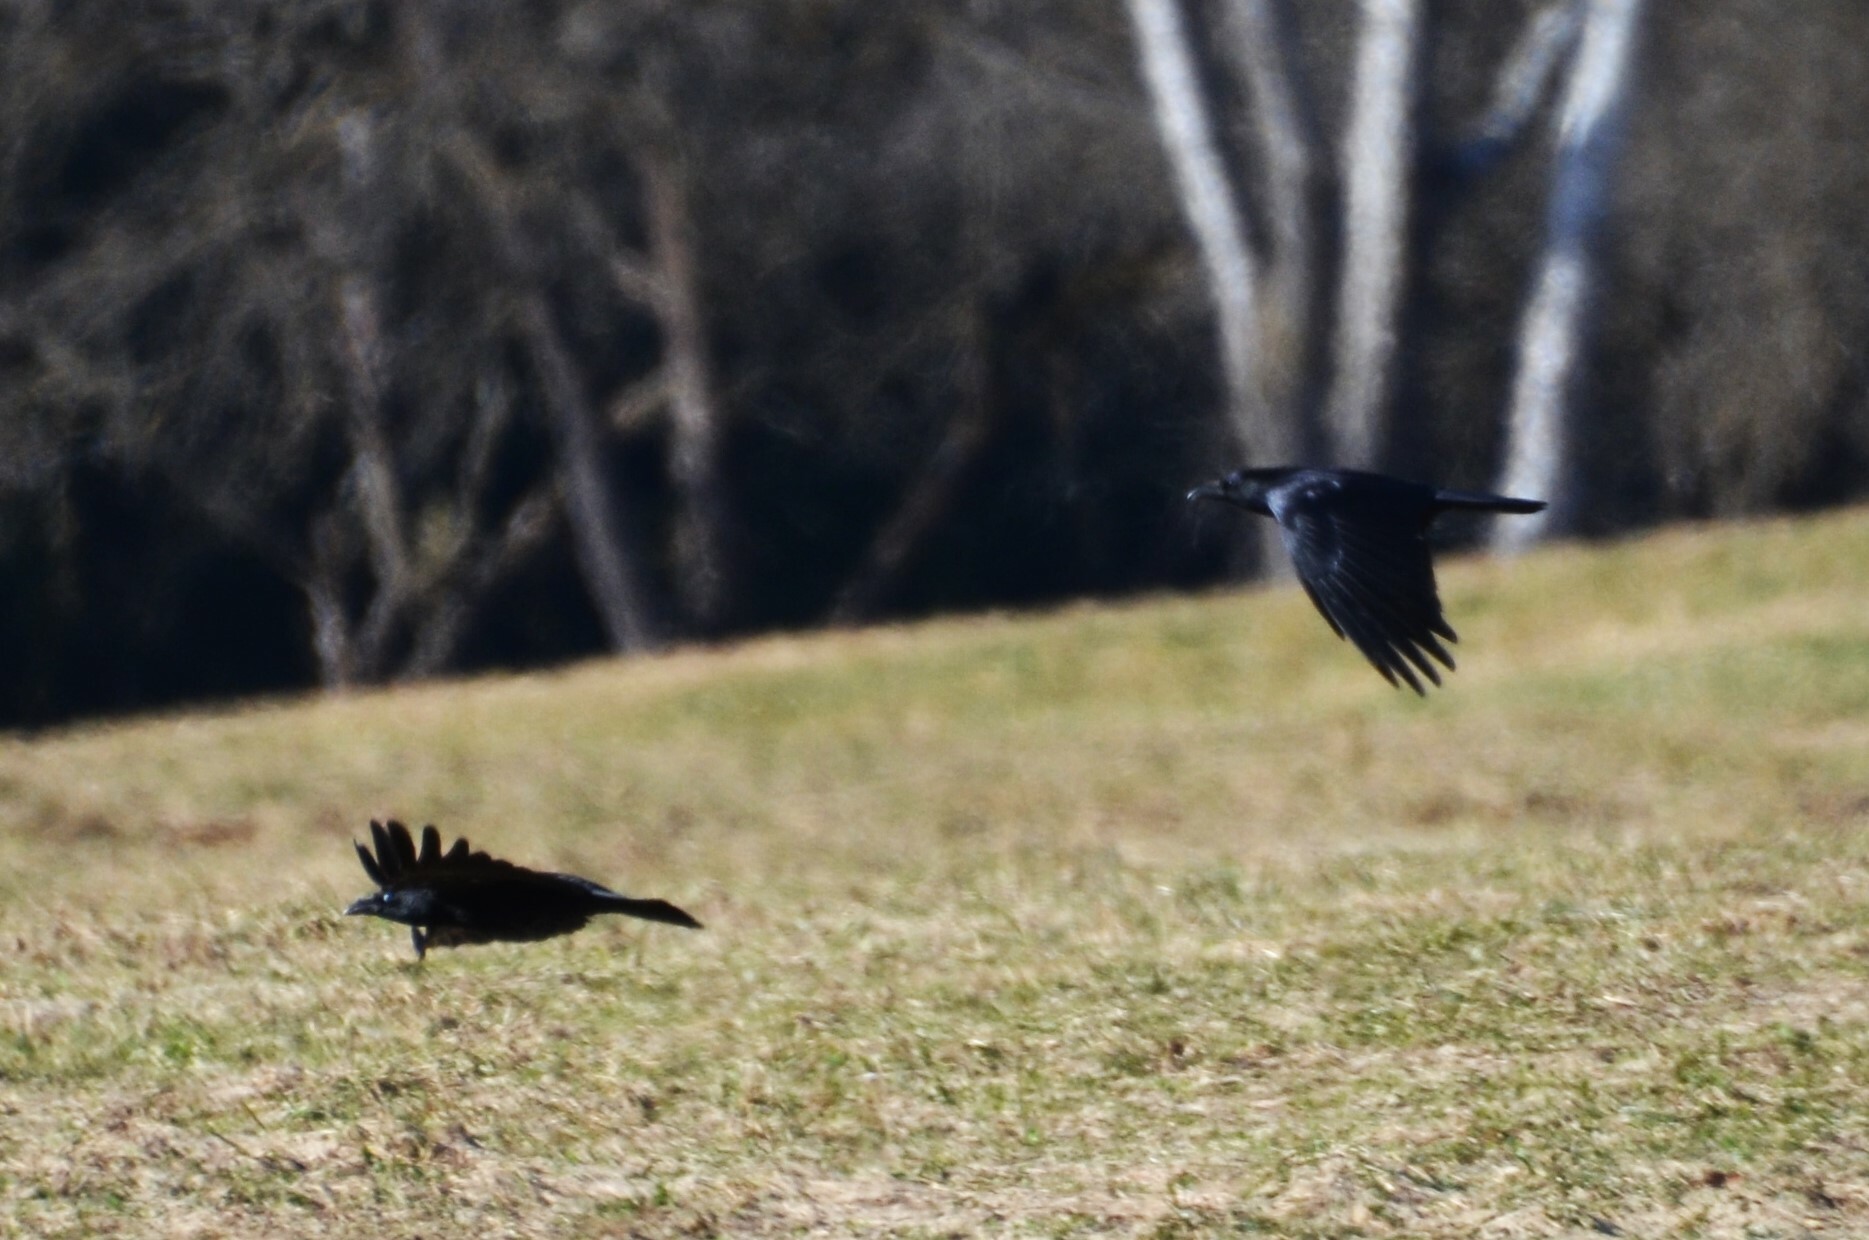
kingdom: Animalia
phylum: Chordata
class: Aves
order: Passeriformes
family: Corvidae
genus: Corvus
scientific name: Corvus corone
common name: Carrion crow
